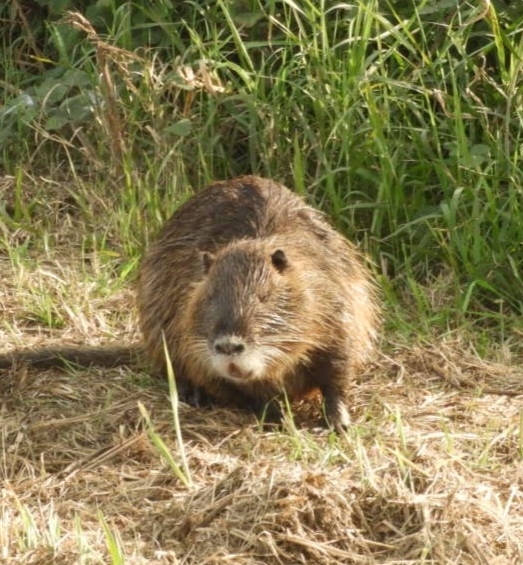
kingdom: Animalia
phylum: Chordata
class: Mammalia
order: Rodentia
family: Myocastoridae
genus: Myocastor
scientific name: Myocastor coypus
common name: Coypu
